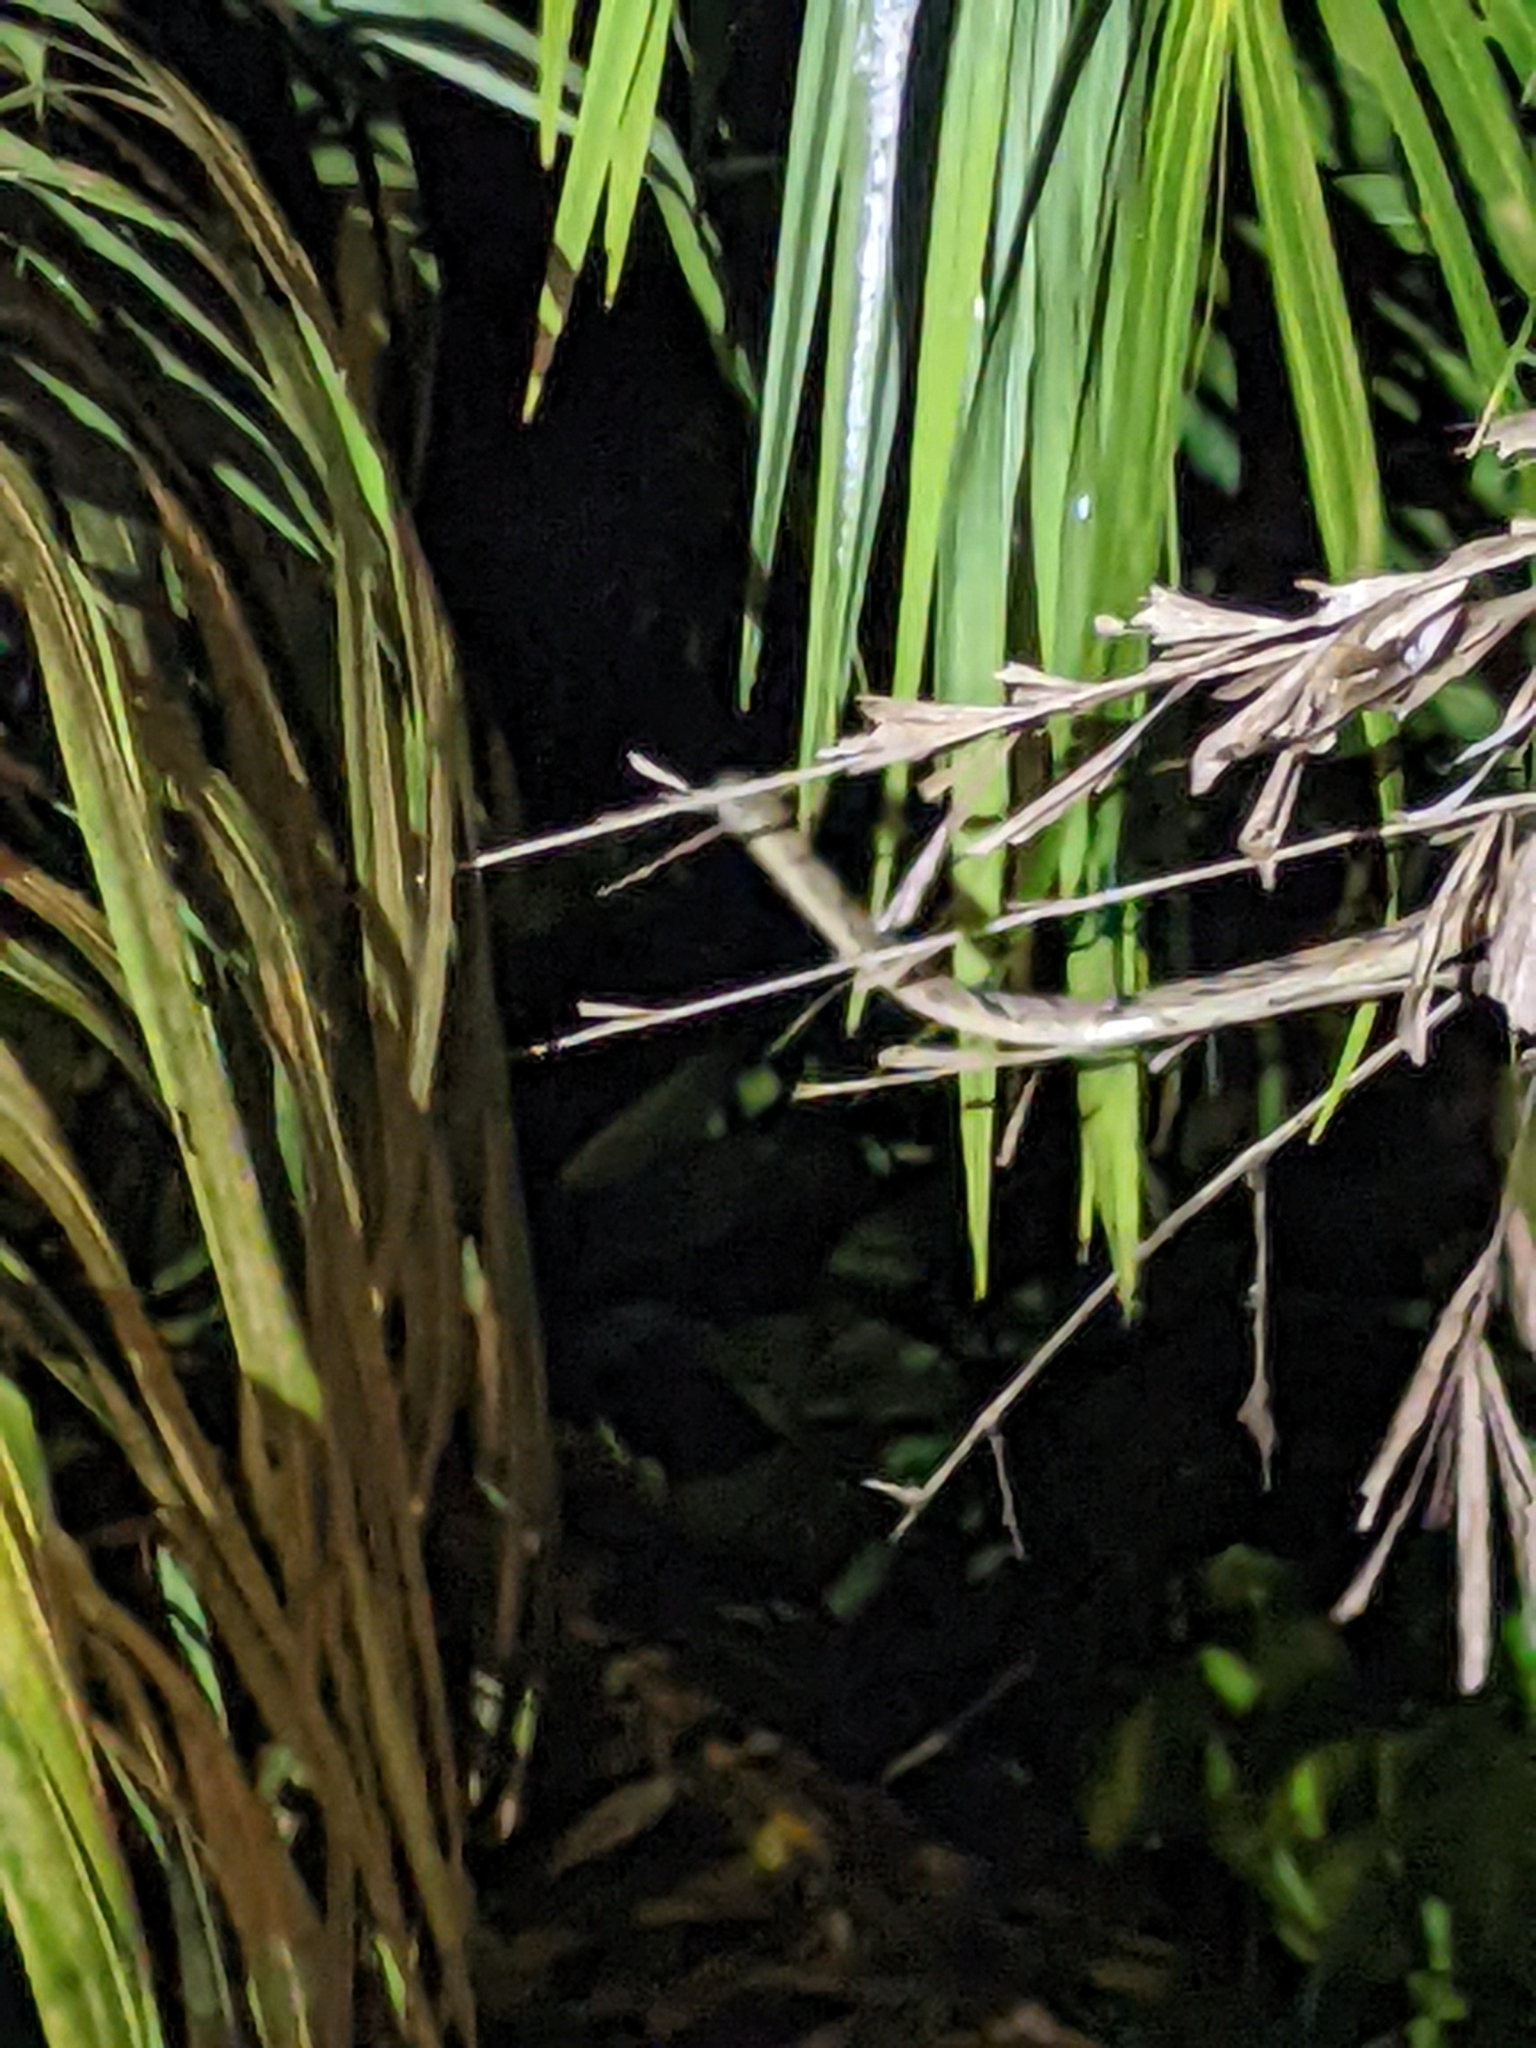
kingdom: Animalia
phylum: Chordata
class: Squamata
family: Colubridae
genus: Boiga
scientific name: Boiga cynodon
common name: Dog-toothed cat snake
